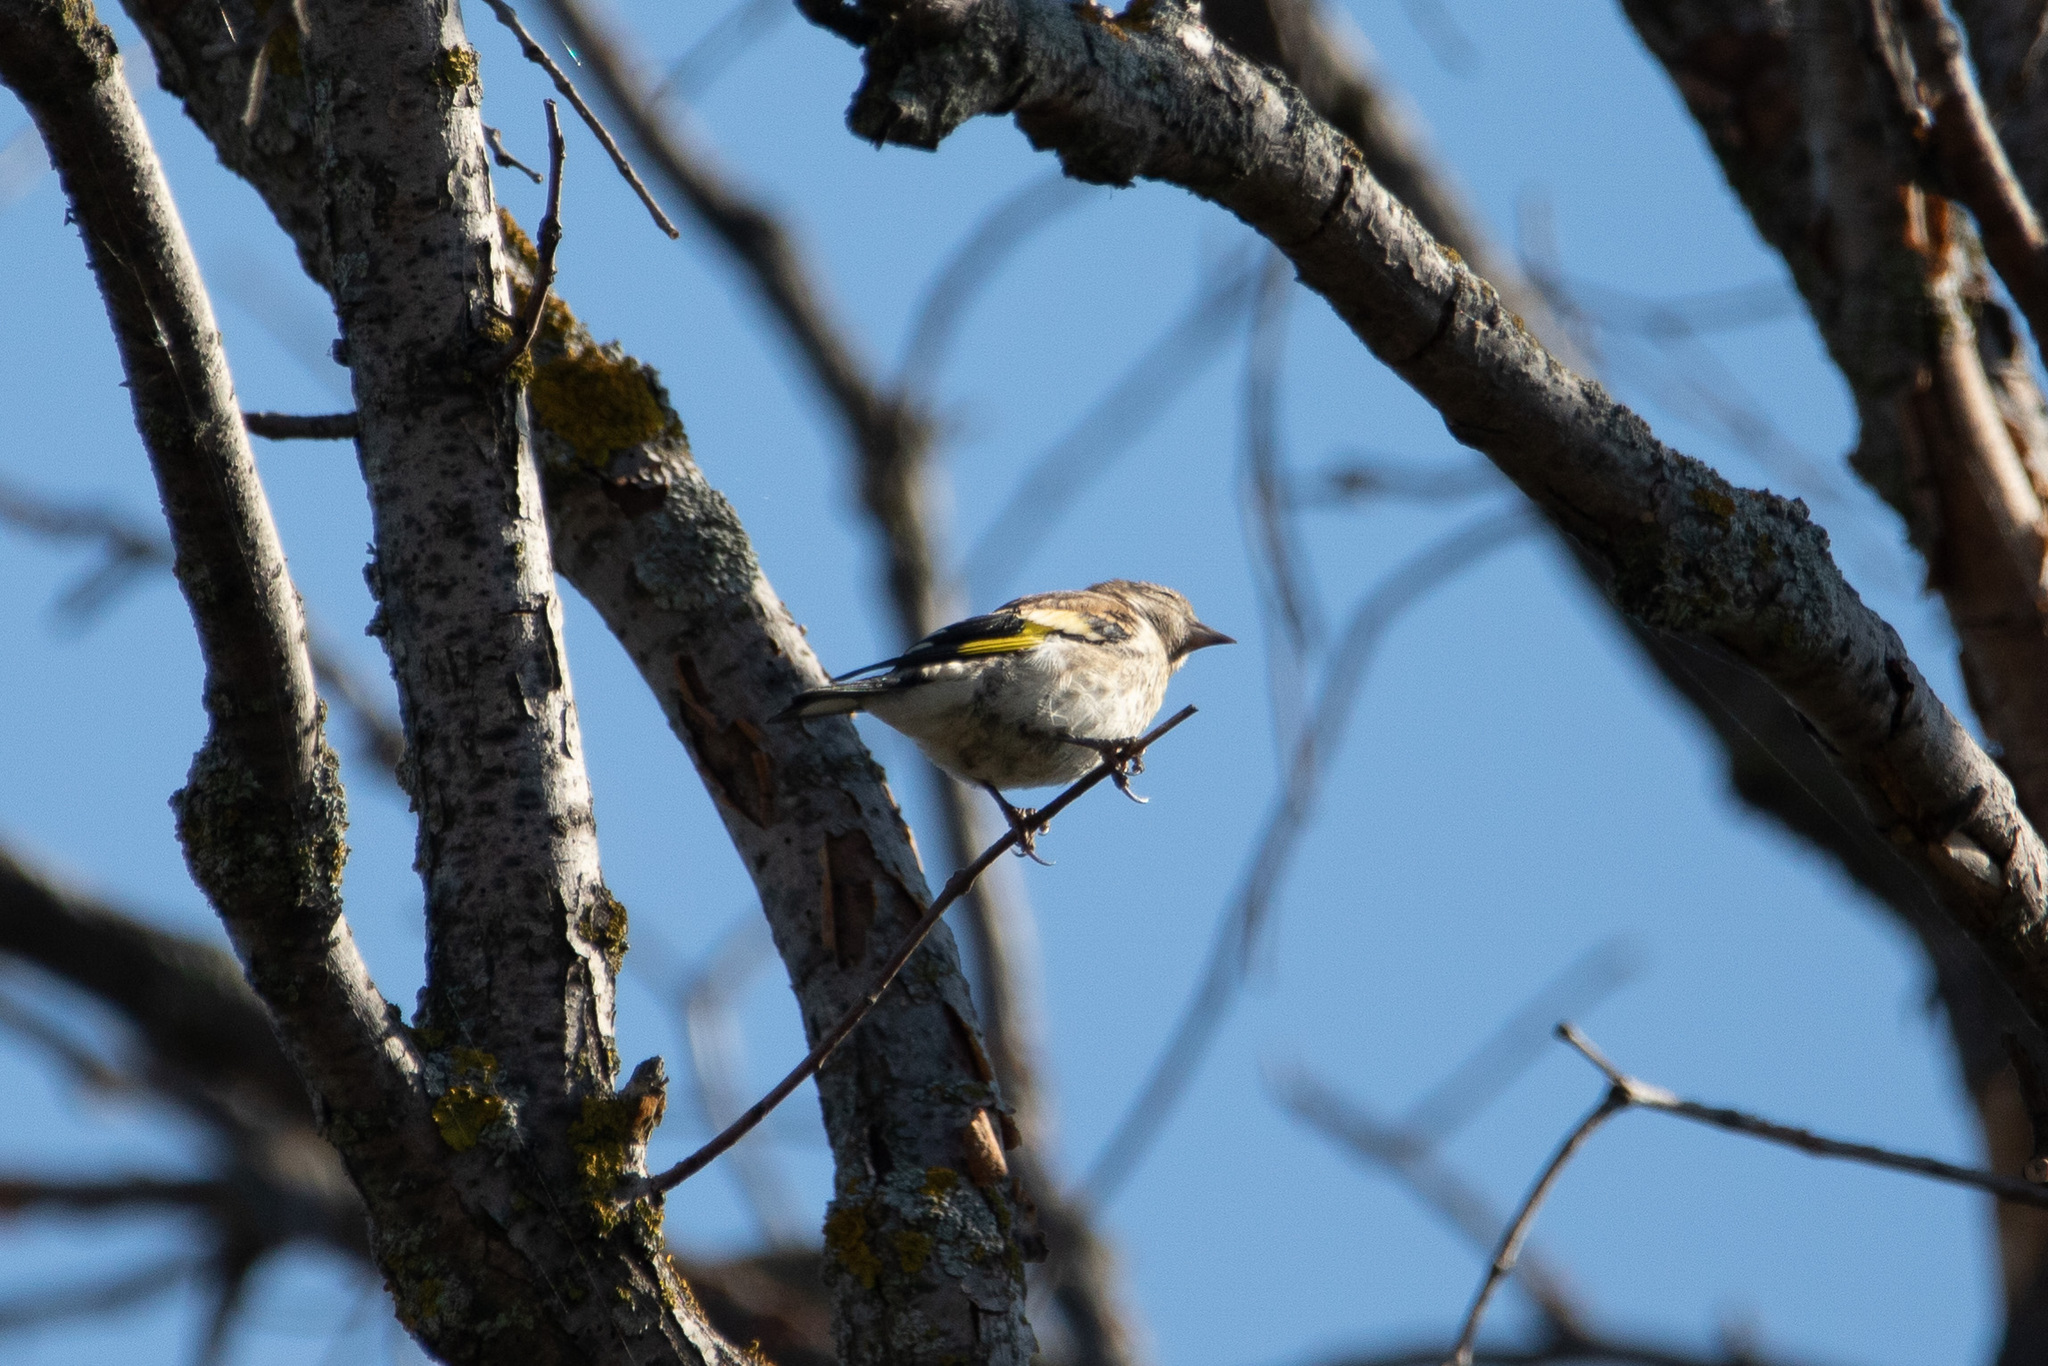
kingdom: Animalia
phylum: Chordata
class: Aves
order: Passeriformes
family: Fringillidae
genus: Carduelis
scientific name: Carduelis carduelis
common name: European goldfinch
